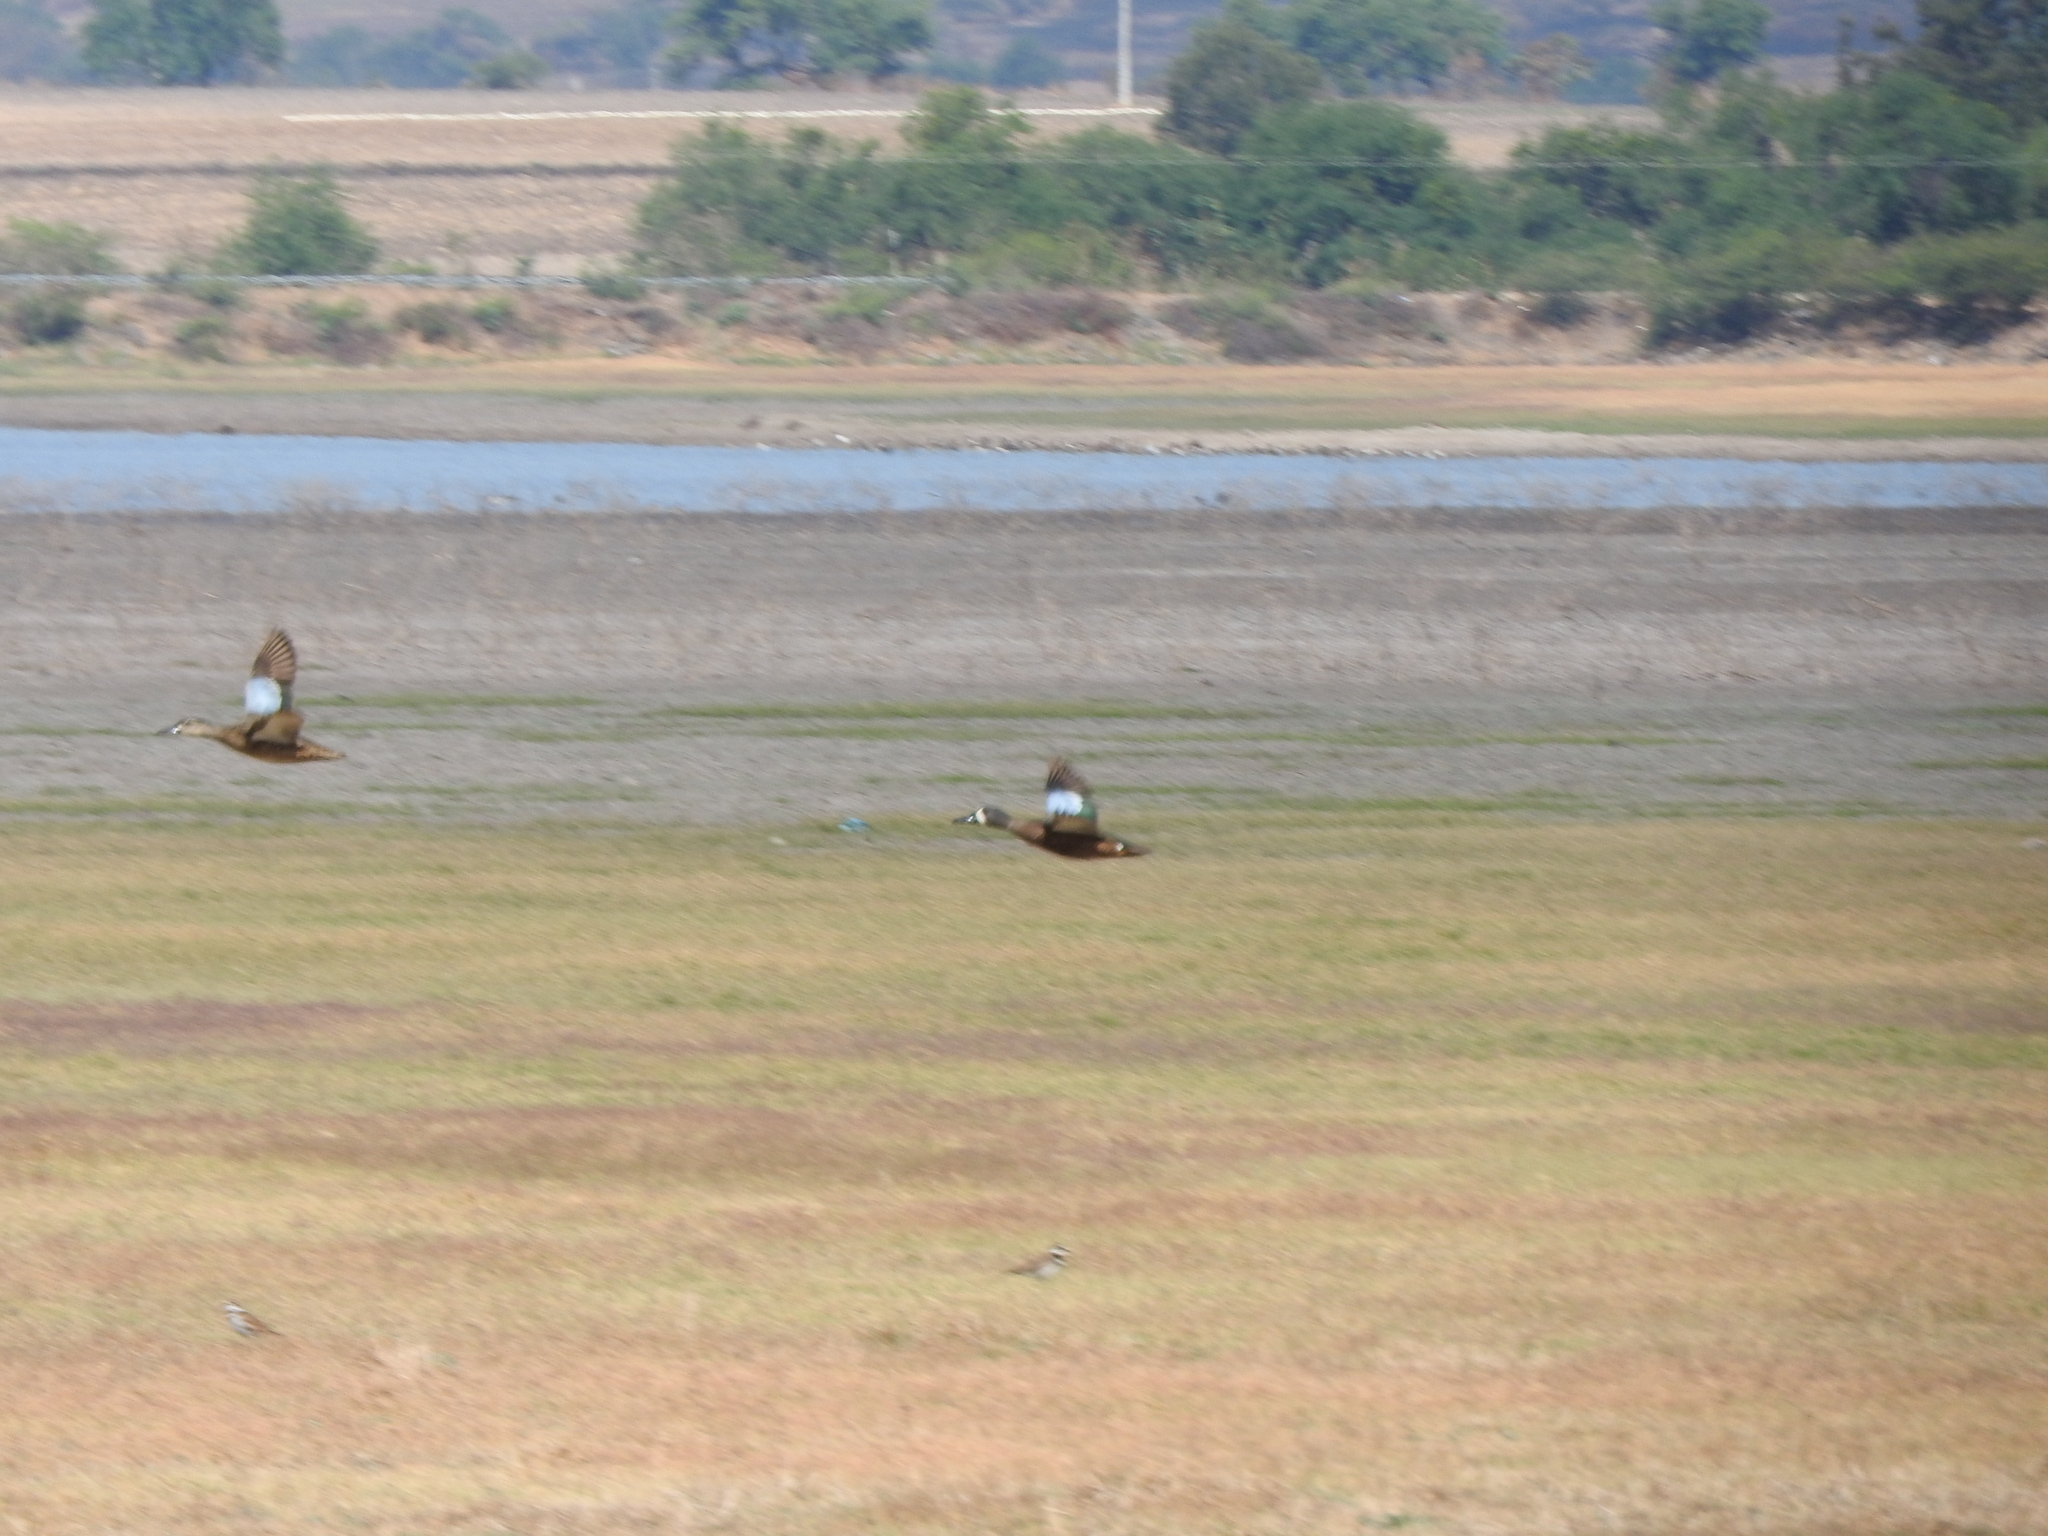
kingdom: Animalia
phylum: Chordata
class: Aves
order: Charadriiformes
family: Charadriidae
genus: Charadrius
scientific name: Charadrius vociferus
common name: Killdeer
